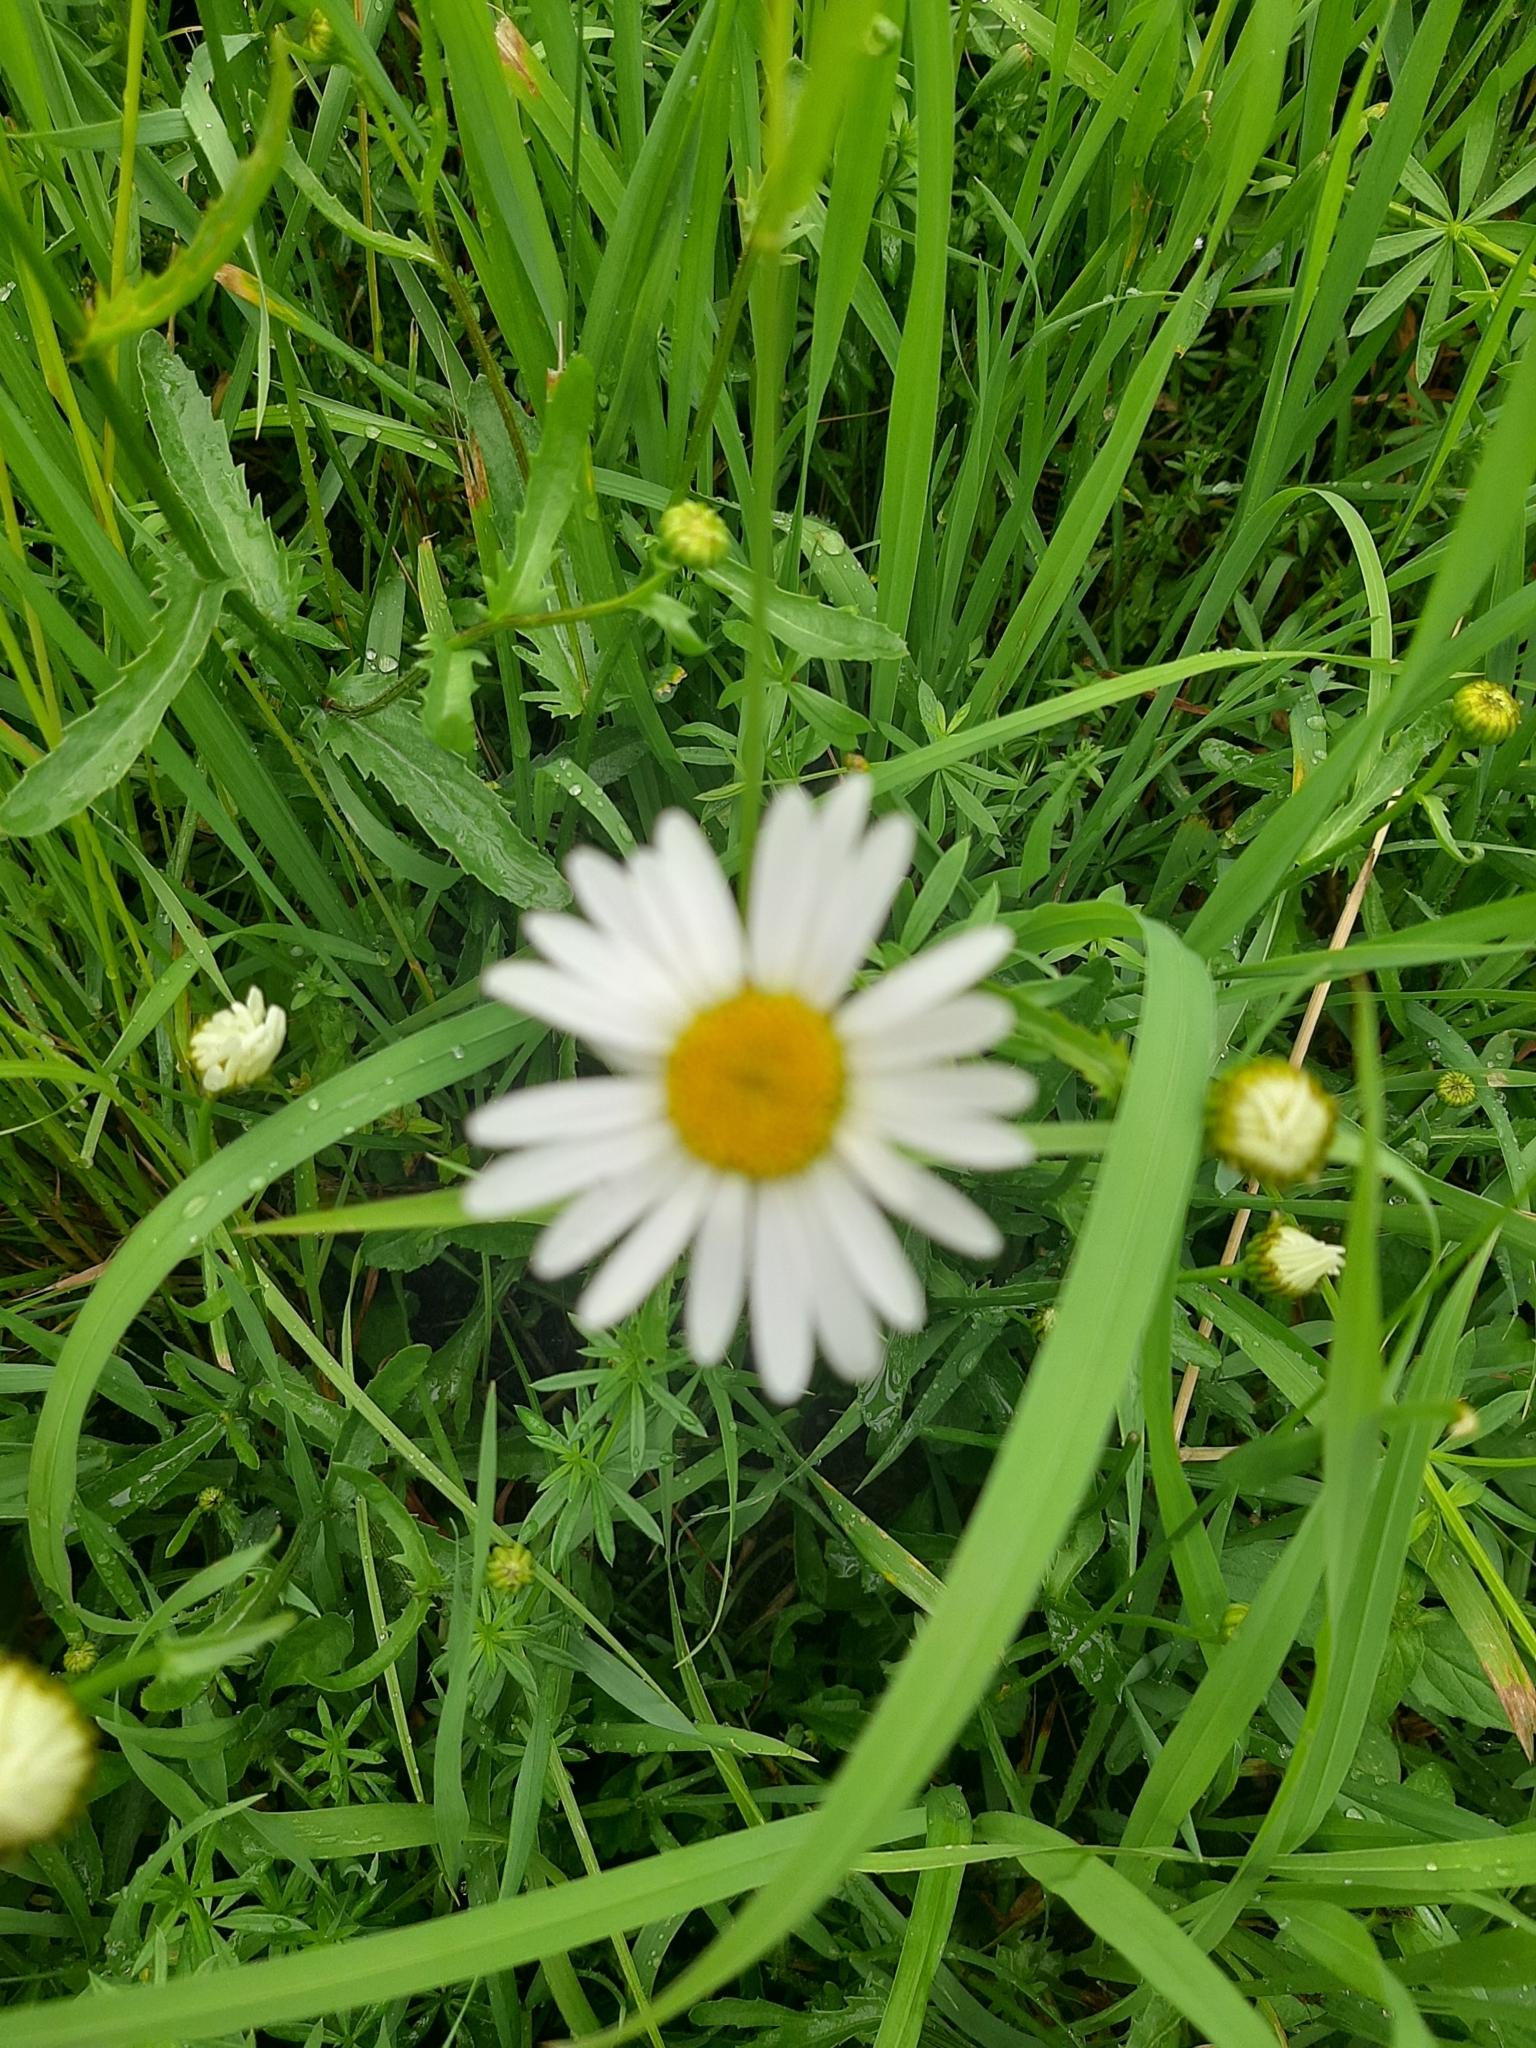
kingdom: Plantae
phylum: Tracheophyta
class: Magnoliopsida
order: Asterales
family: Asteraceae
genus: Leucanthemum
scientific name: Leucanthemum vulgare
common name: Oxeye daisy
